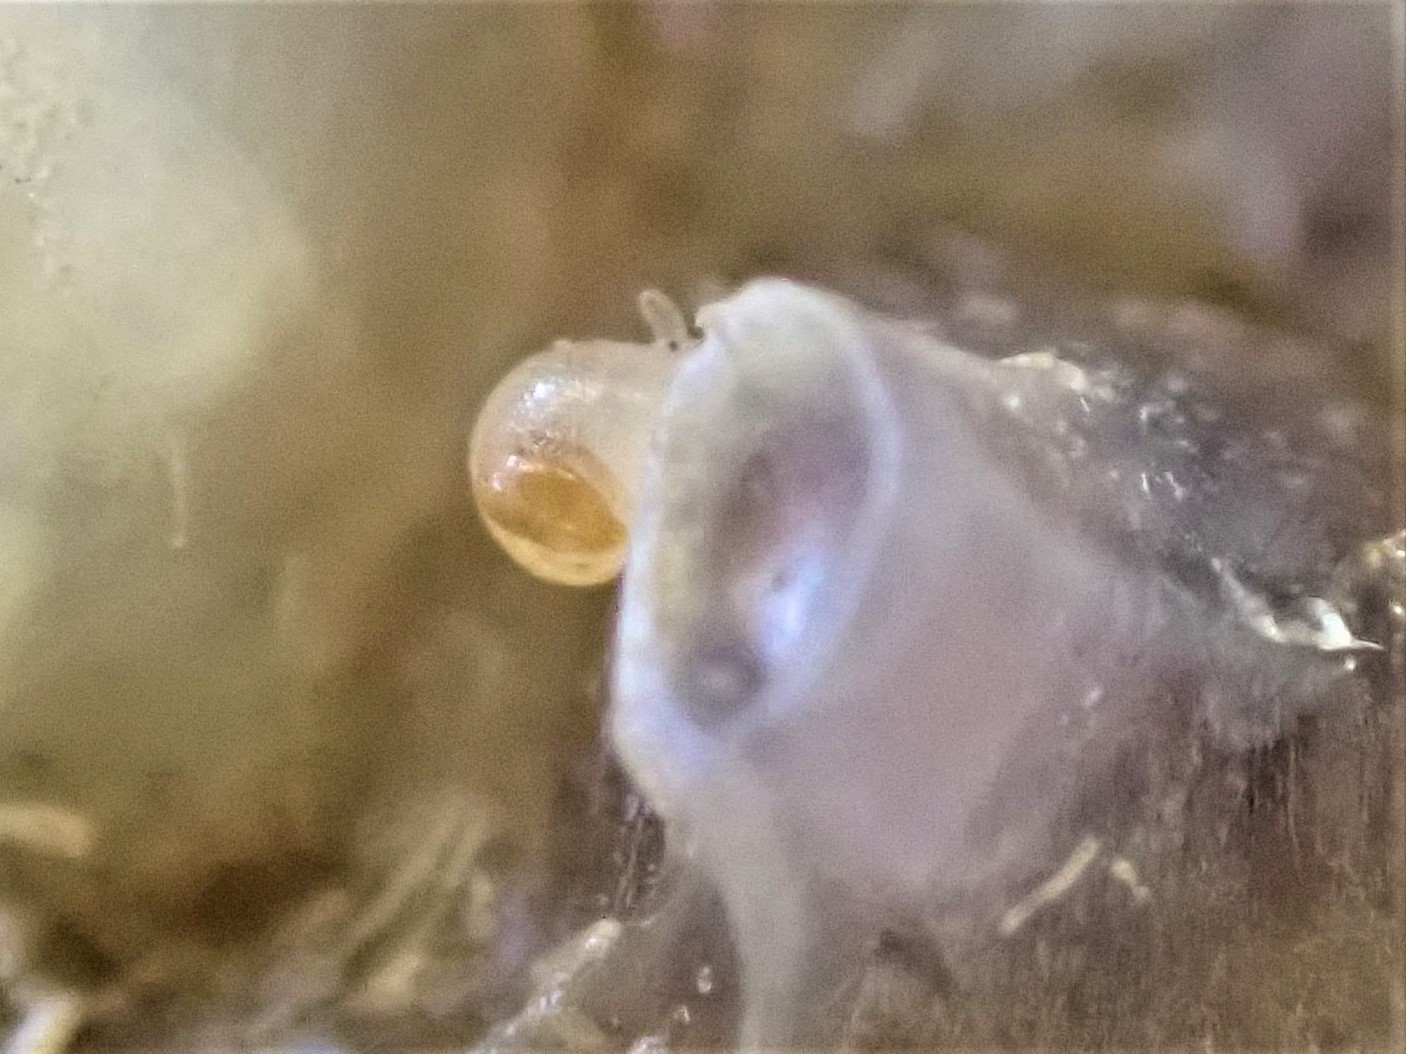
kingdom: Animalia
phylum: Mollusca
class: Gastropoda
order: Ellobiida
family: Ellobiidae
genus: Leuconopsis
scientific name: Leuconopsis obsoleta
